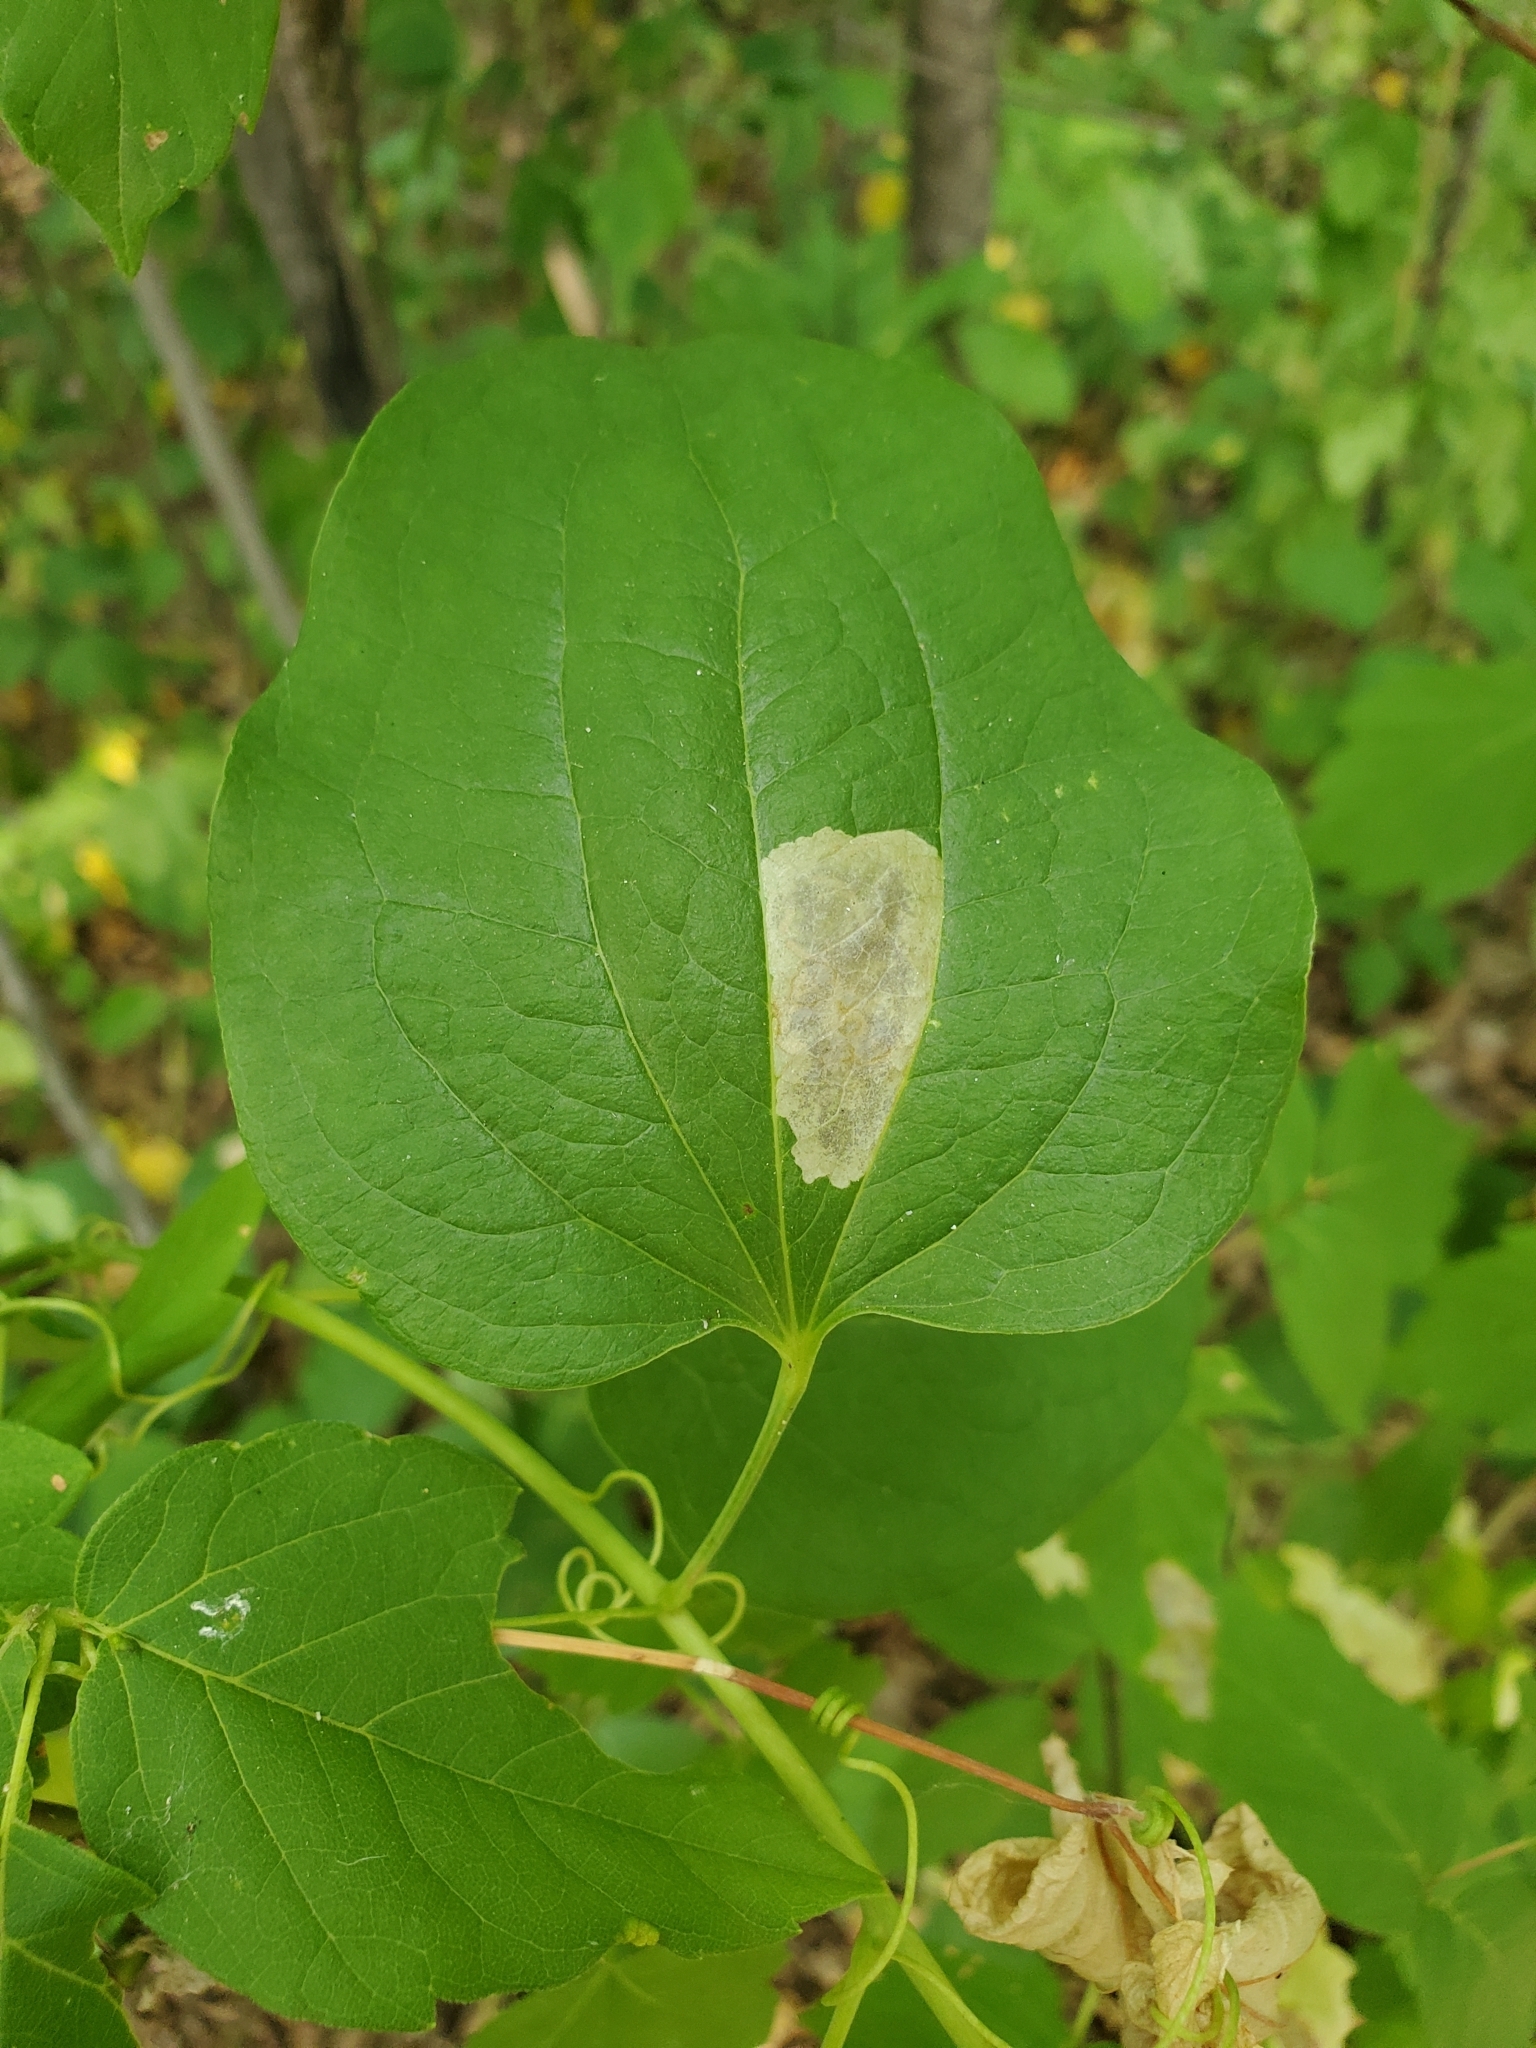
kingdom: Animalia
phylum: Arthropoda
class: Insecta
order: Lepidoptera
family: Lyonetiidae
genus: Leucoptera
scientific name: Leucoptera
